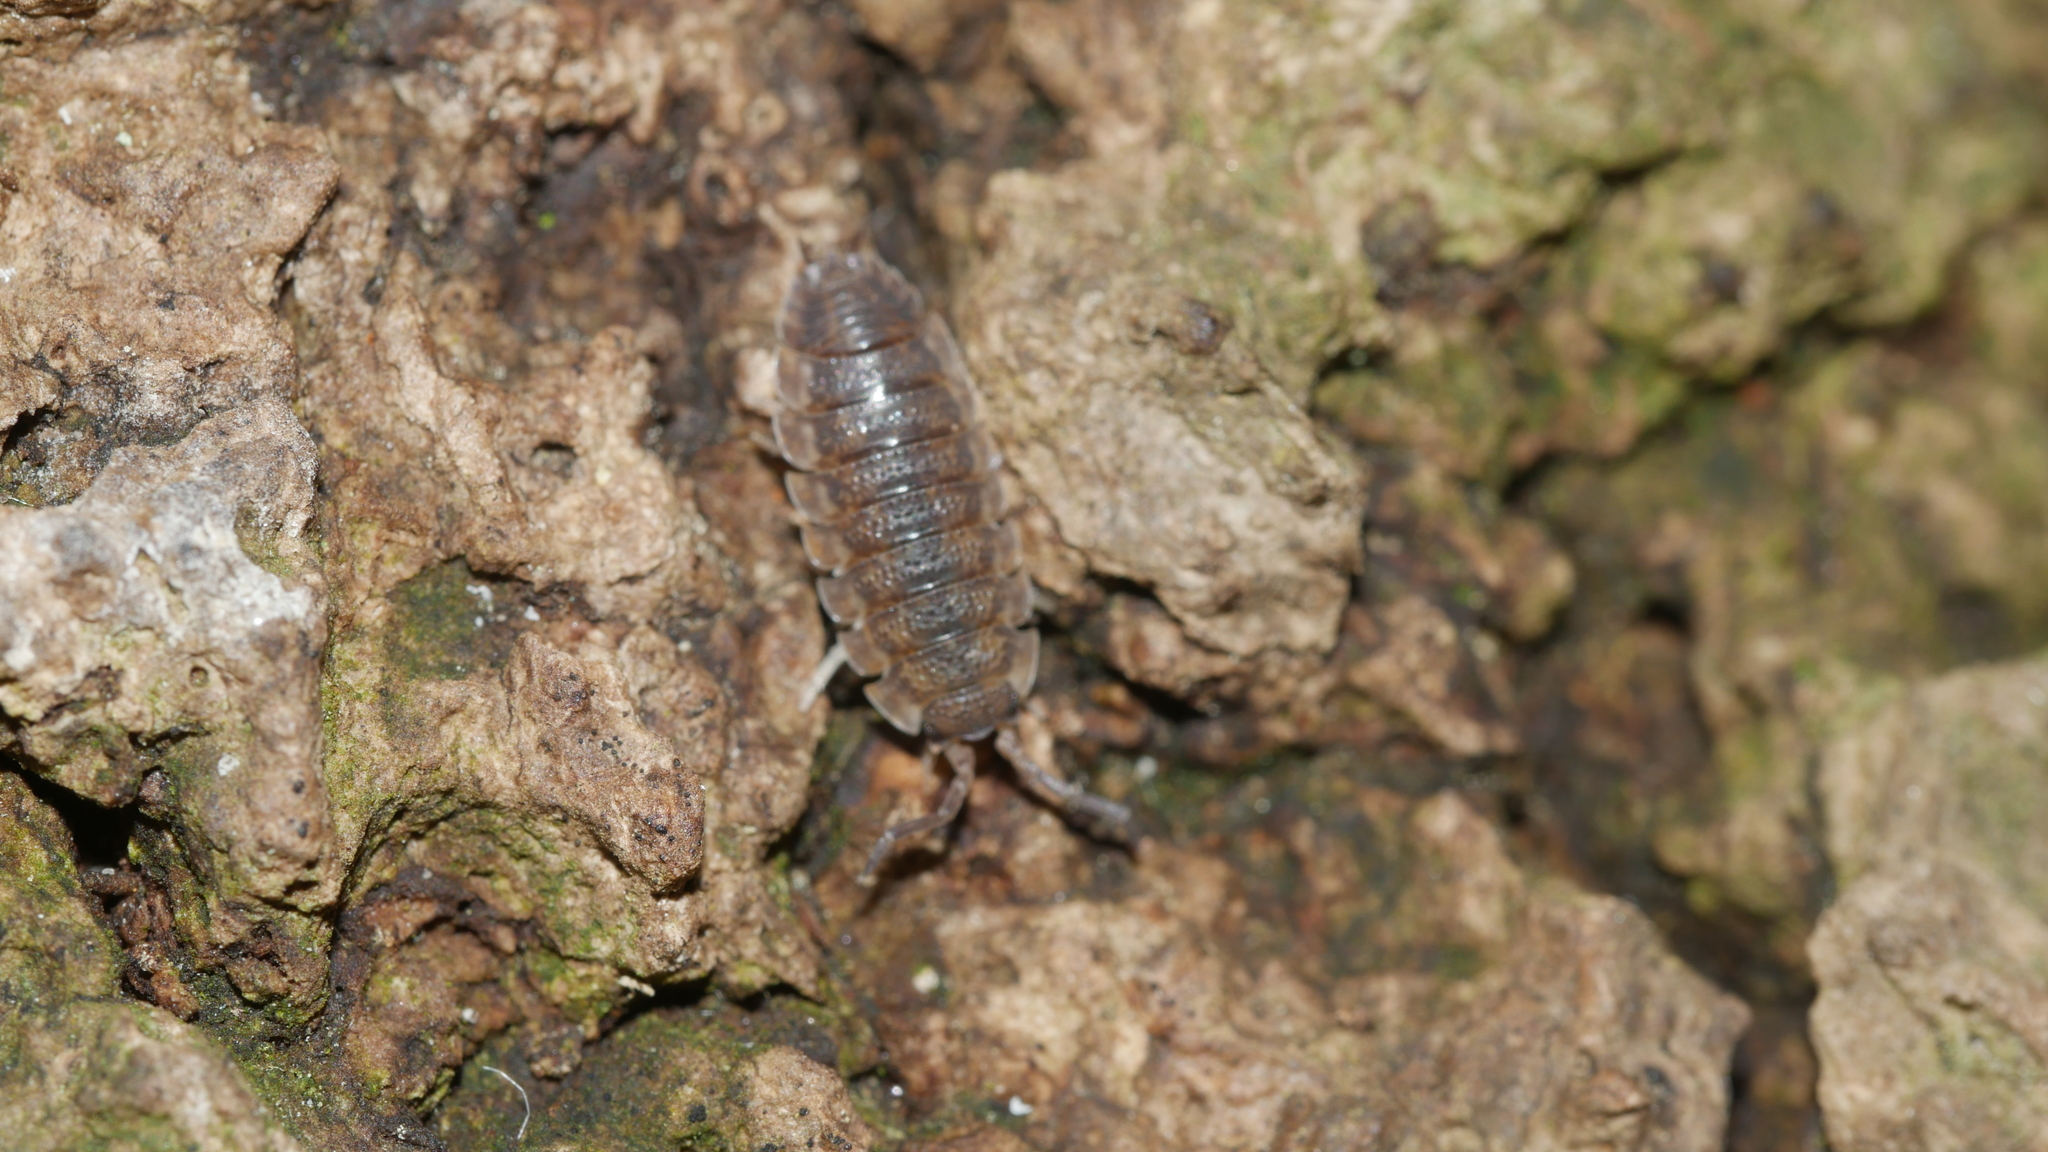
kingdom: Animalia
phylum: Arthropoda
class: Malacostraca
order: Isopoda
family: Porcellionidae
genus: Porcellio
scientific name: Porcellio scaber
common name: Common rough woodlouse
